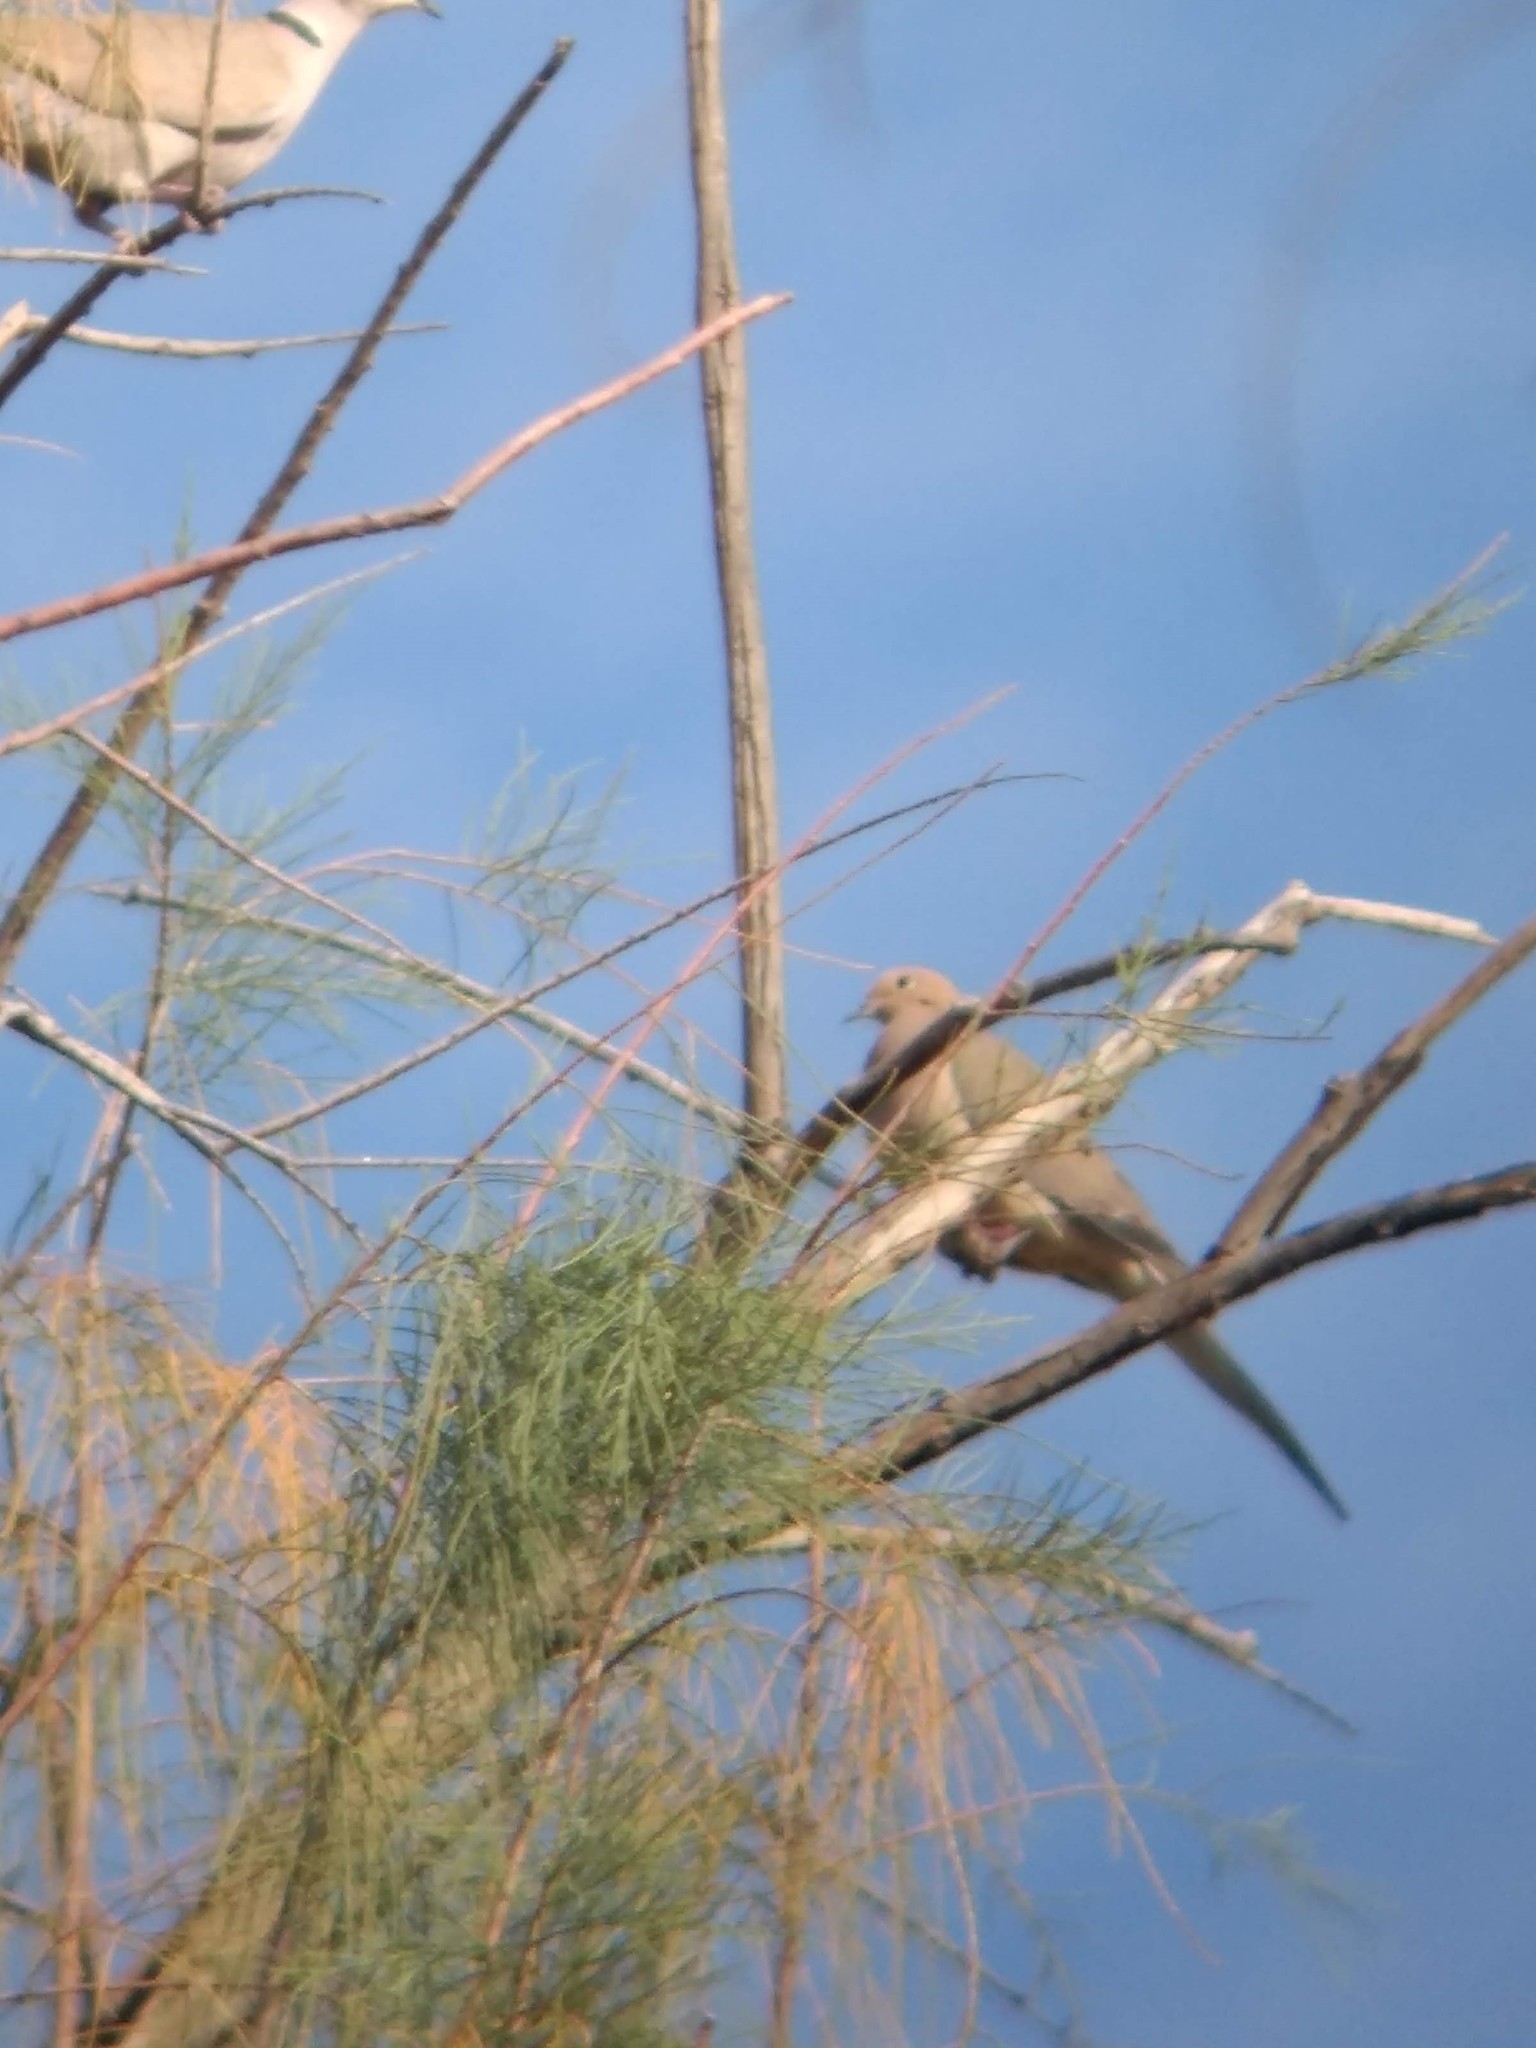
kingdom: Animalia
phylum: Chordata
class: Aves
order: Columbiformes
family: Columbidae
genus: Zenaida
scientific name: Zenaida macroura
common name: Mourning dove
